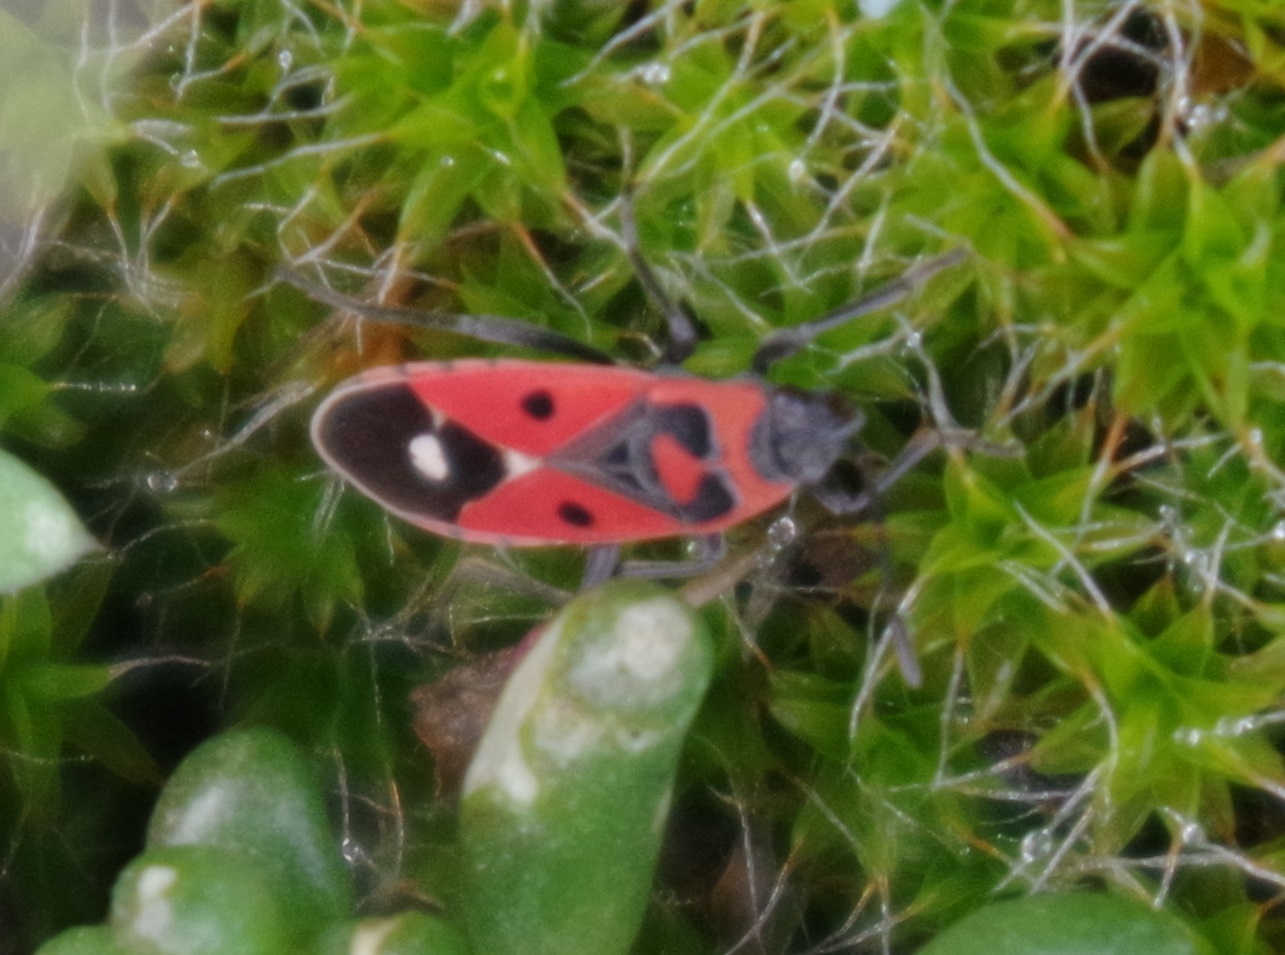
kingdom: Animalia
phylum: Arthropoda
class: Insecta
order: Hemiptera
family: Lygaeidae
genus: Melanocoryphus
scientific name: Melanocoryphus albomaculatus
